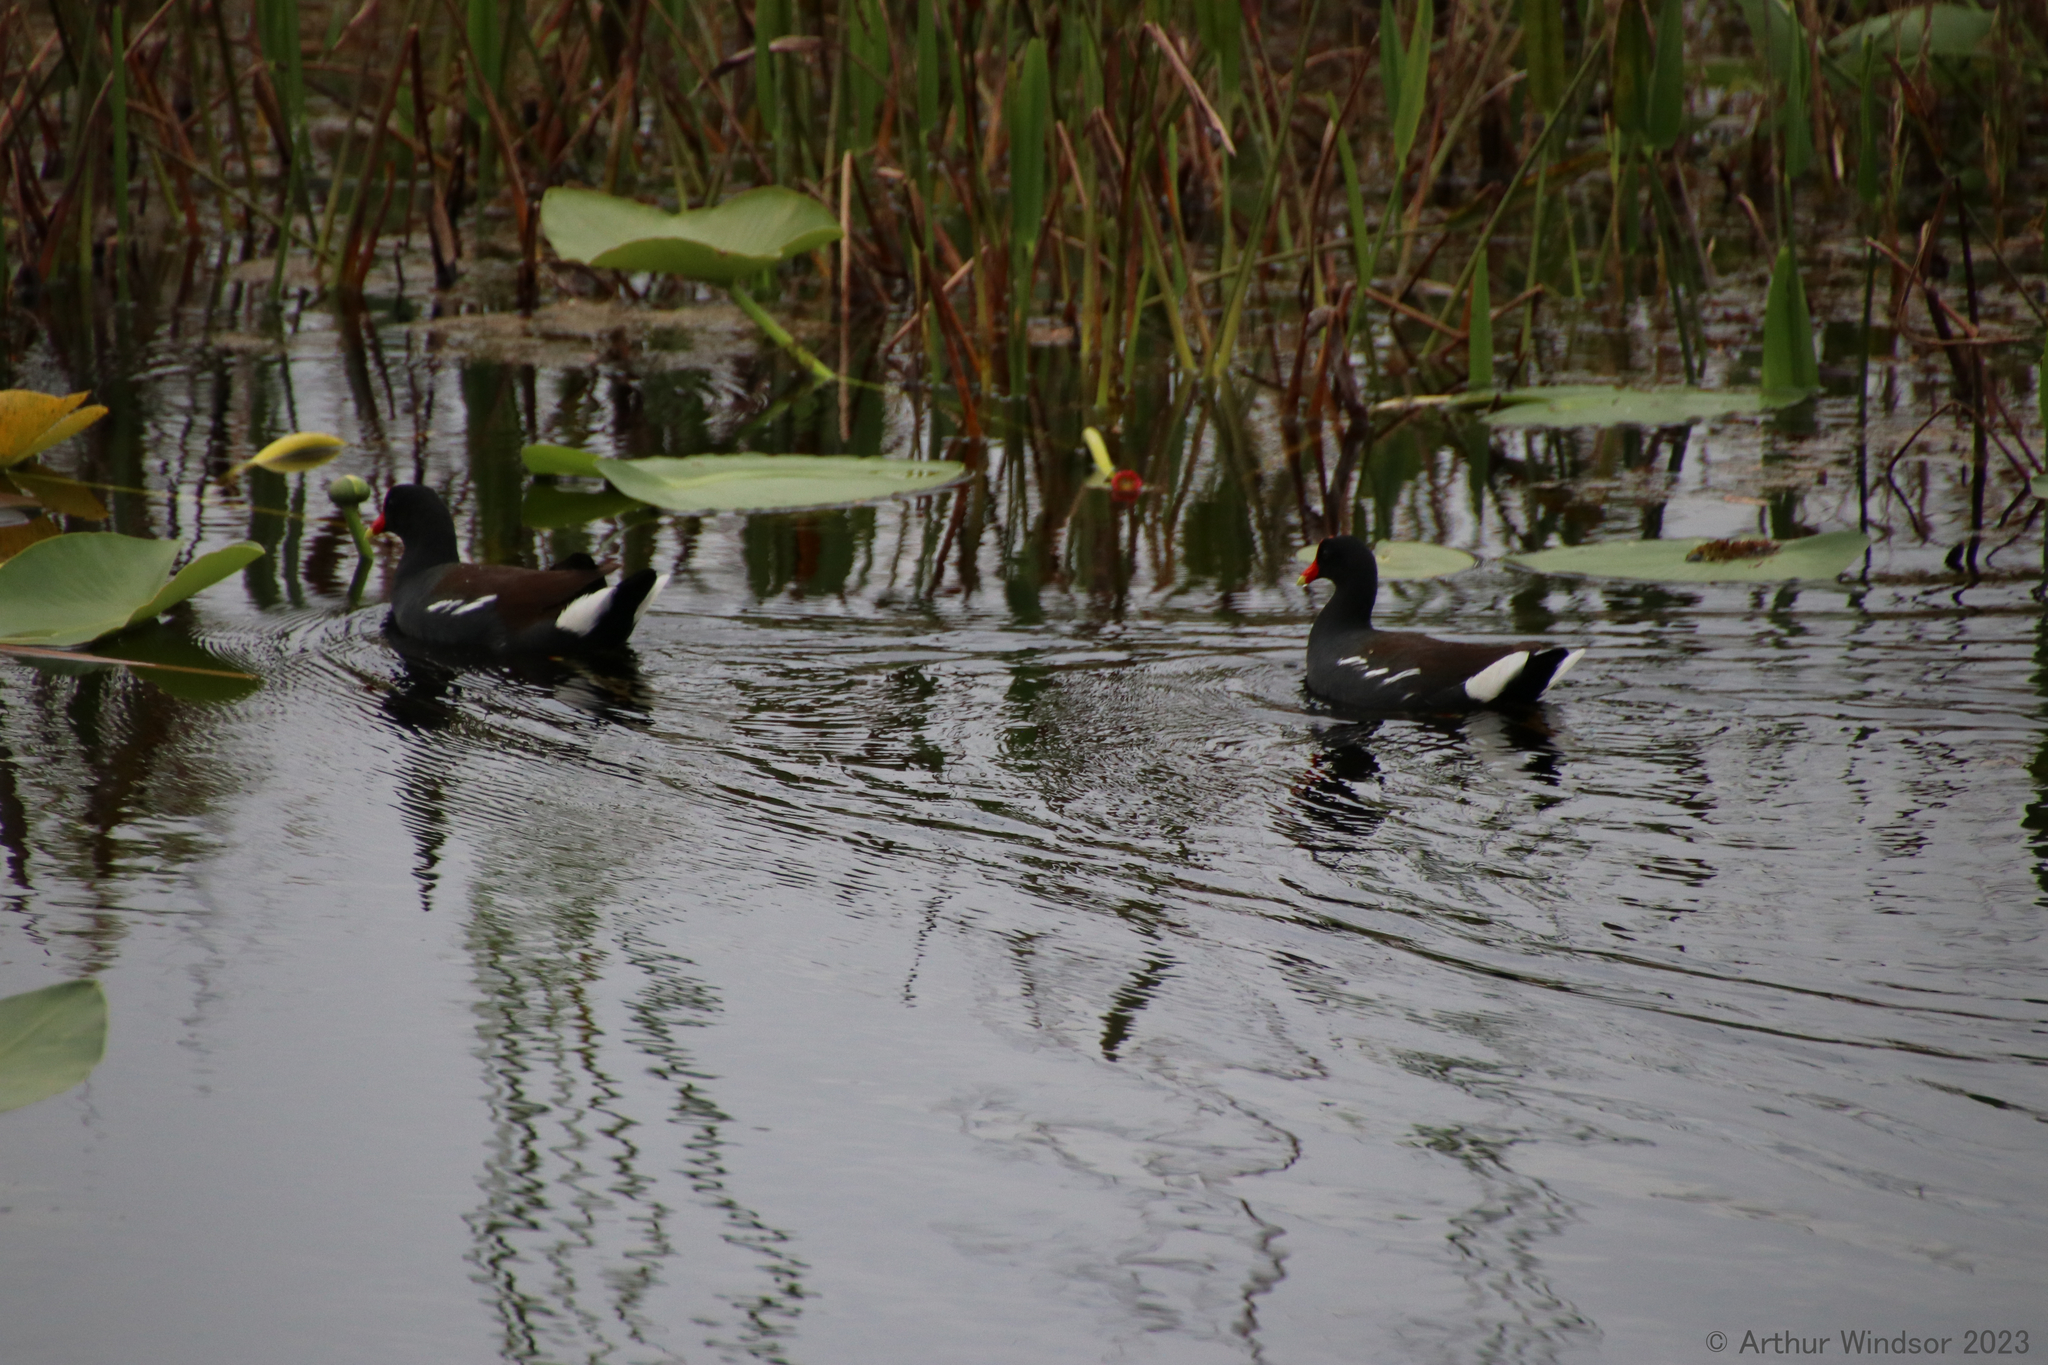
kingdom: Animalia
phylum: Chordata
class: Aves
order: Gruiformes
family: Rallidae
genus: Gallinula
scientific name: Gallinula chloropus
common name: Common moorhen
